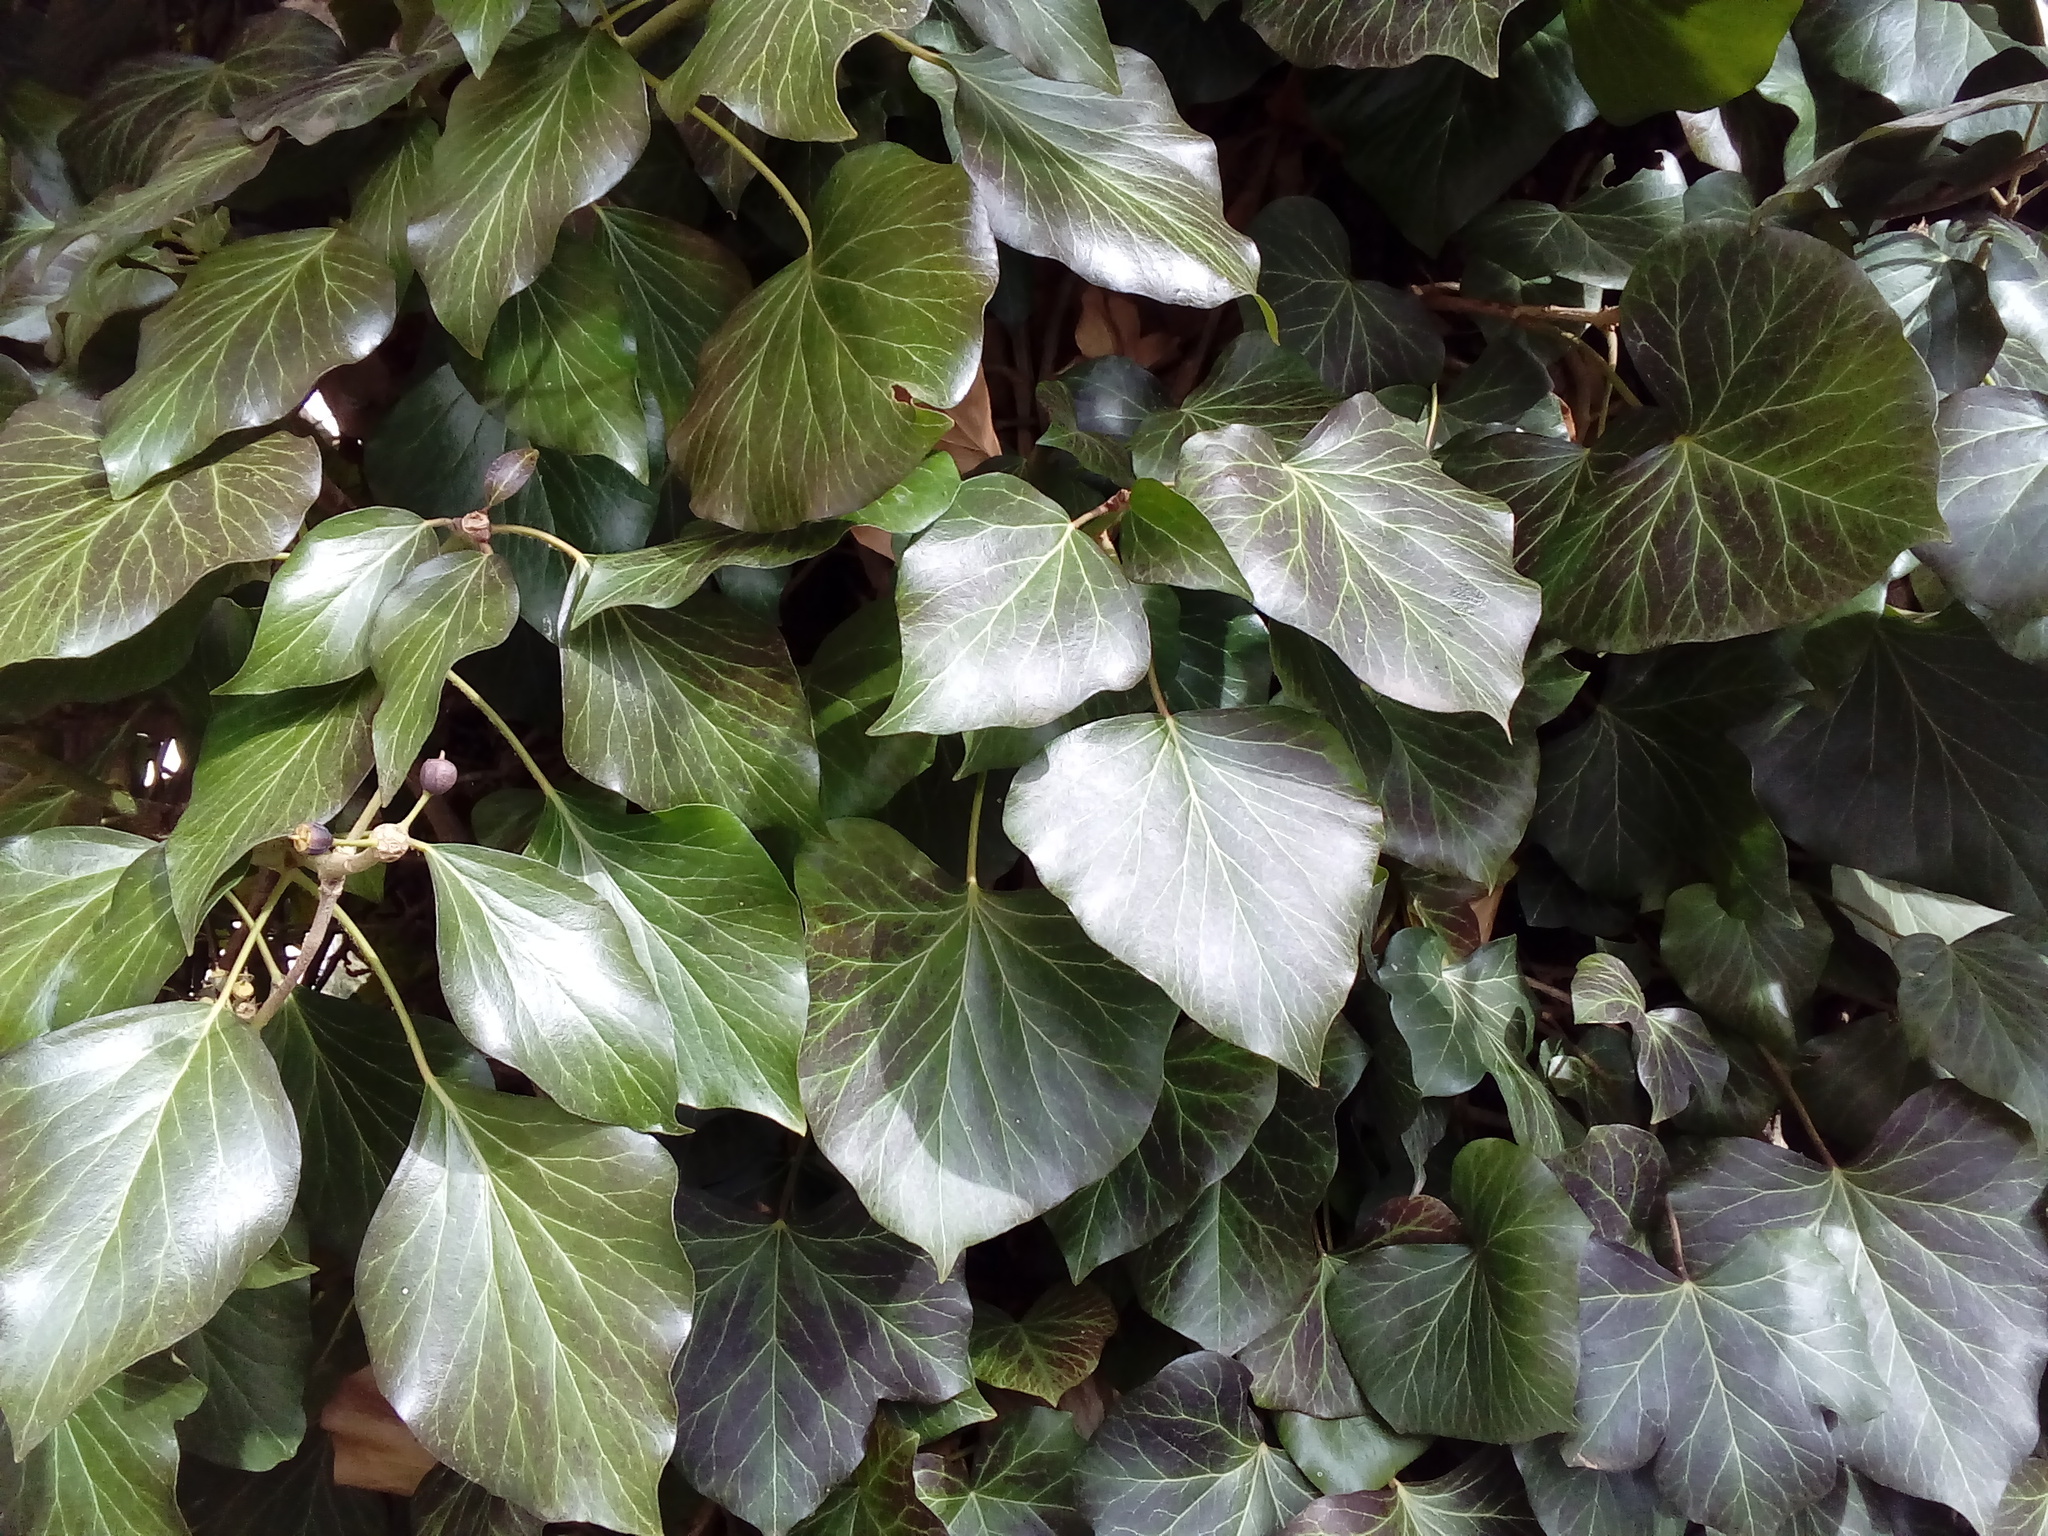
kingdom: Plantae
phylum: Tracheophyta
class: Magnoliopsida
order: Apiales
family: Araliaceae
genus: Hedera
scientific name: Hedera helix
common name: Ivy
